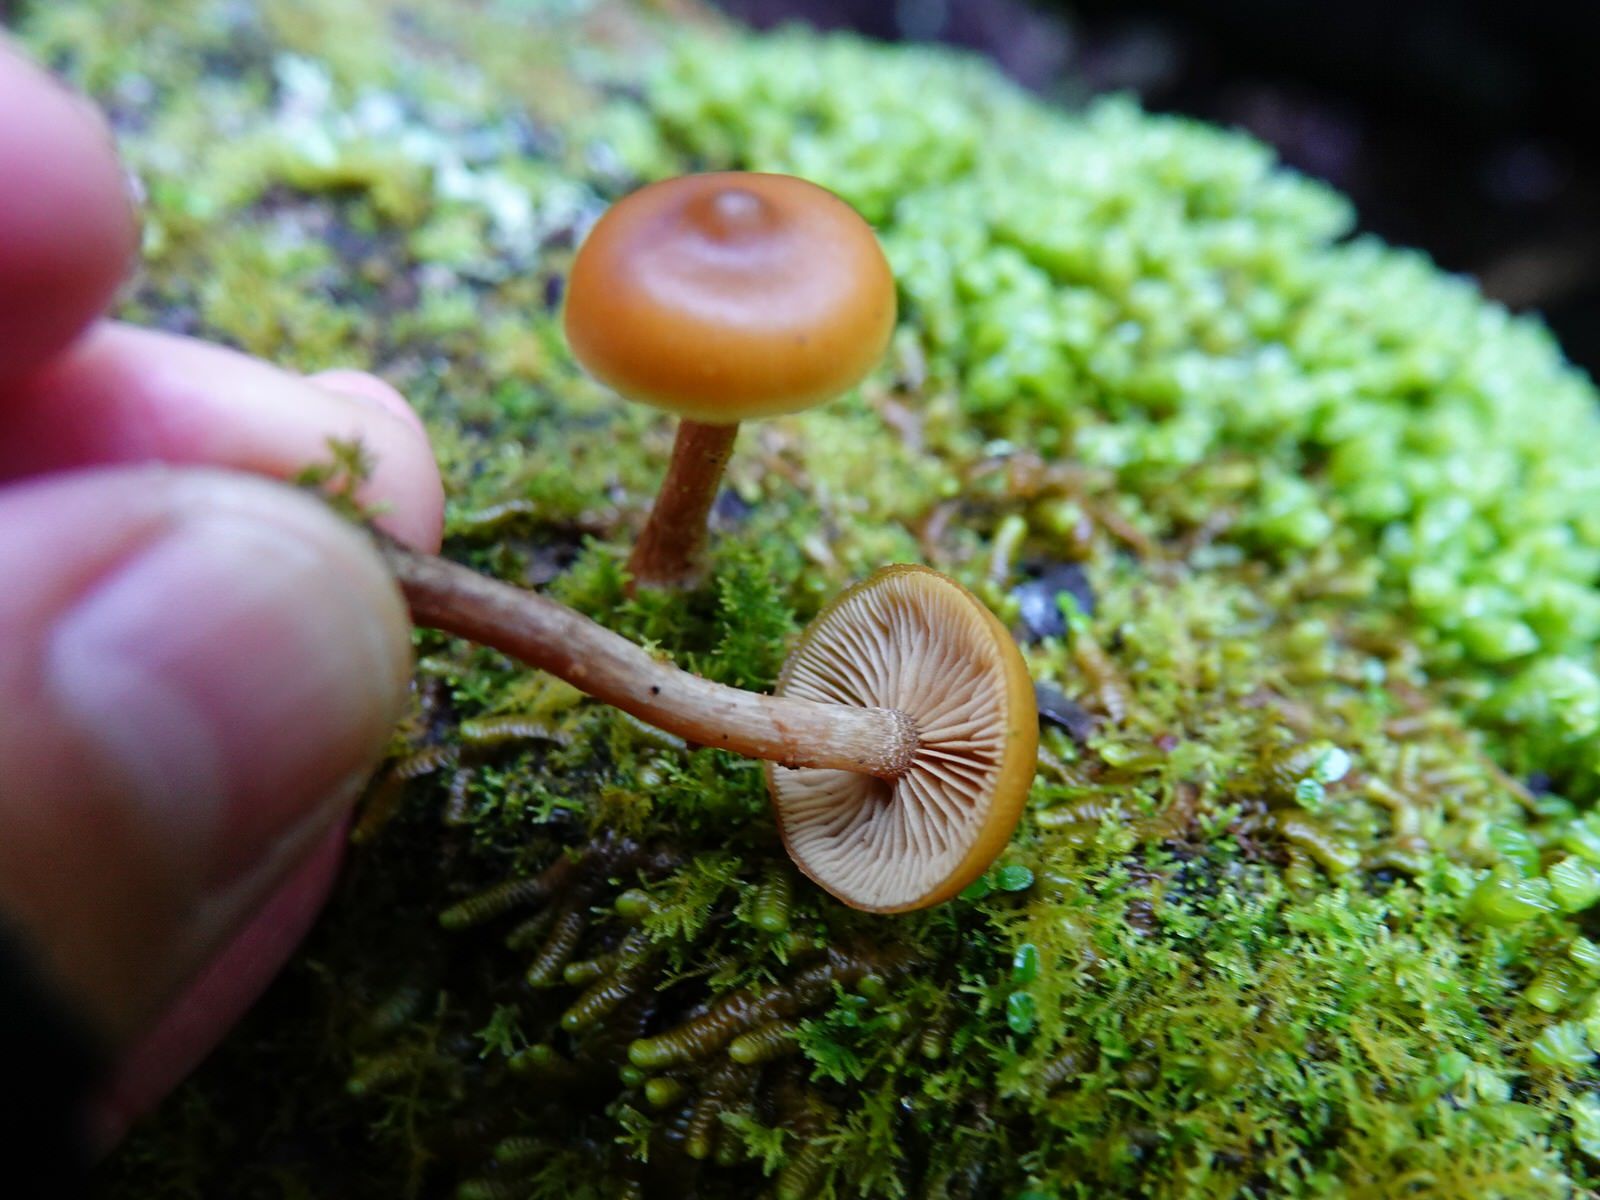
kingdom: Fungi
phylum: Basidiomycota
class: Agaricomycetes
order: Agaricales
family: Hymenogastraceae
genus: Galerina
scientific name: Galerina patagonica
